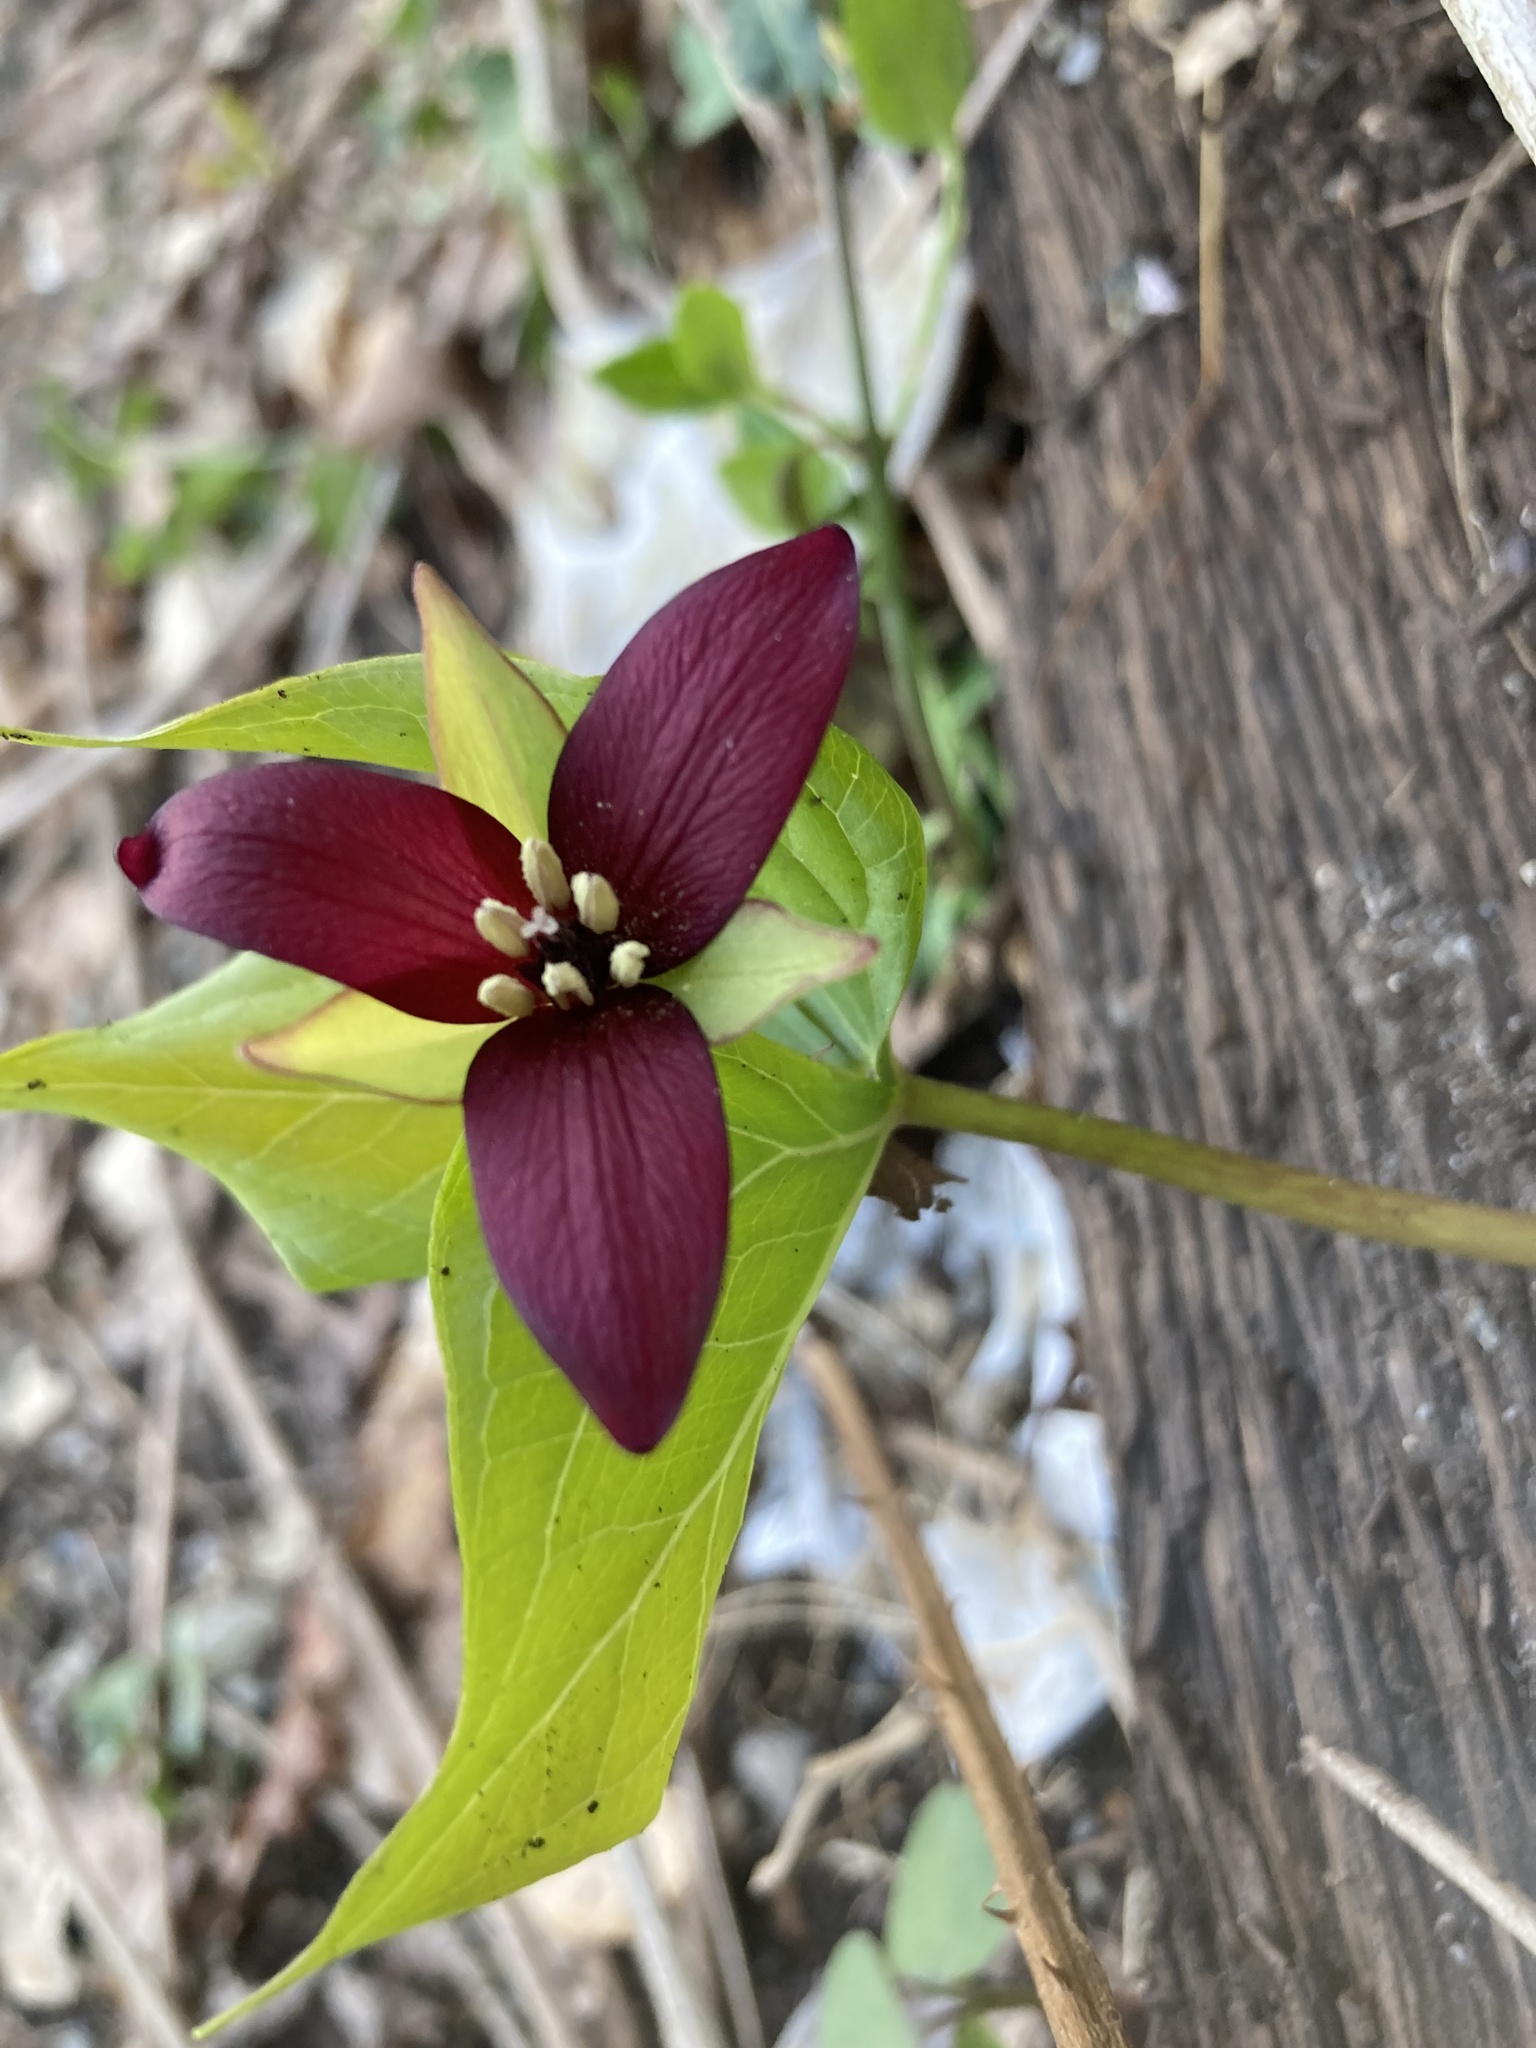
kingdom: Plantae
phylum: Tracheophyta
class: Liliopsida
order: Liliales
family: Melanthiaceae
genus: Trillium
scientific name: Trillium erectum
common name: Purple trillium
